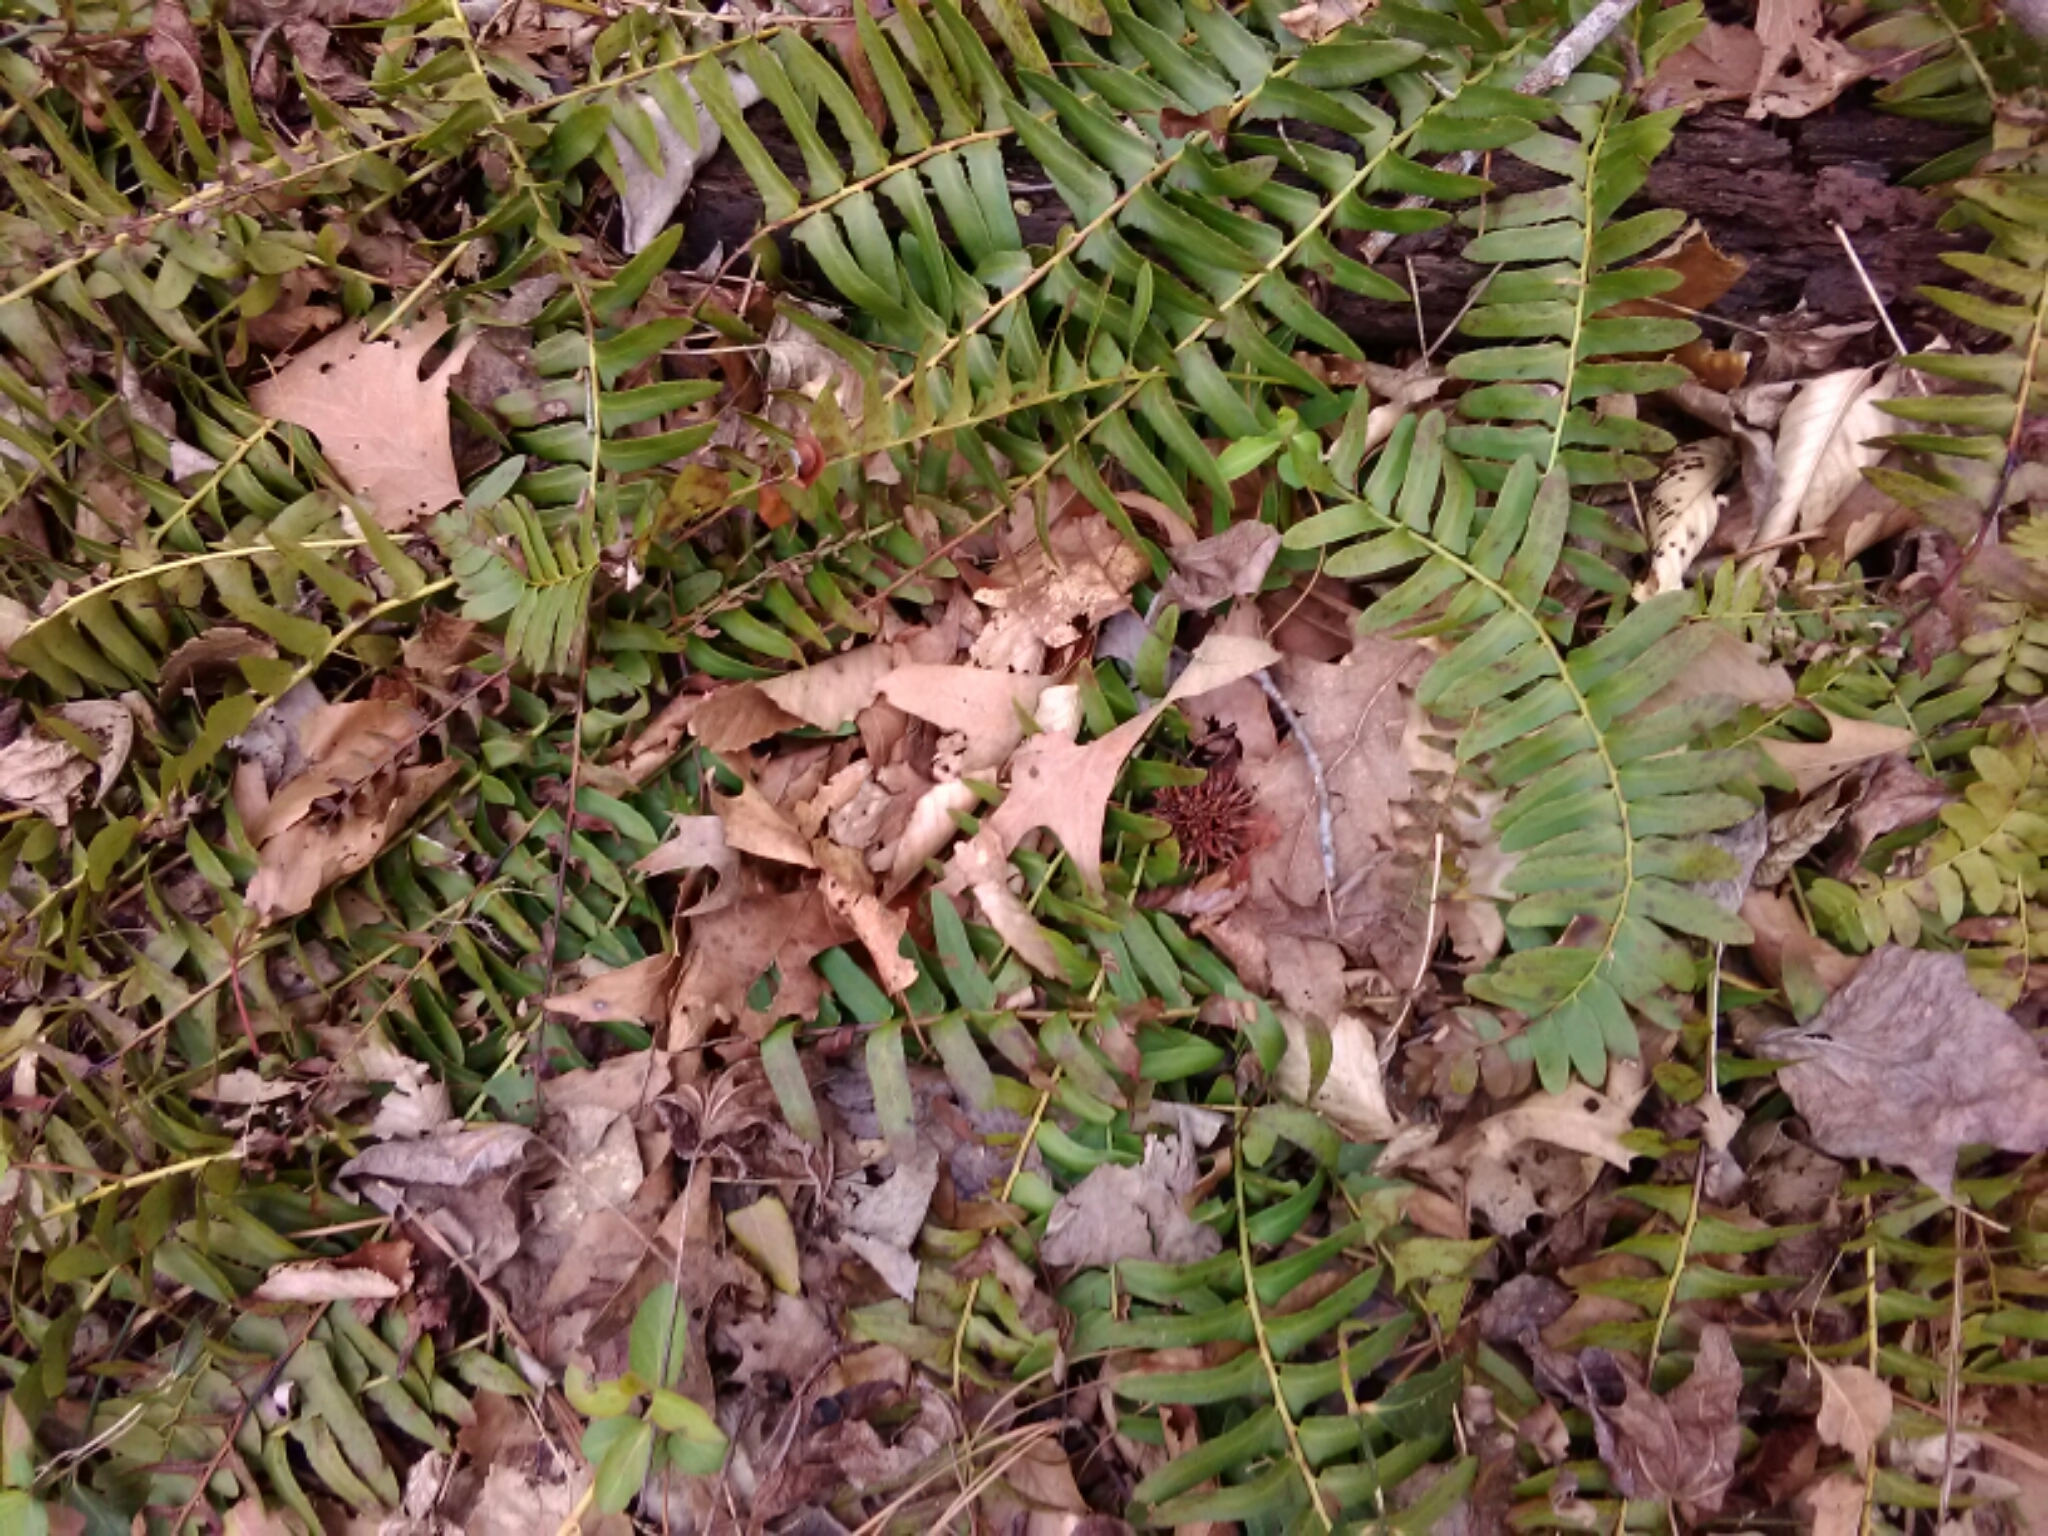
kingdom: Plantae
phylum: Tracheophyta
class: Polypodiopsida
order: Polypodiales
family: Dryopteridaceae
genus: Polystichum
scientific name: Polystichum acrostichoides
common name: Christmas fern
